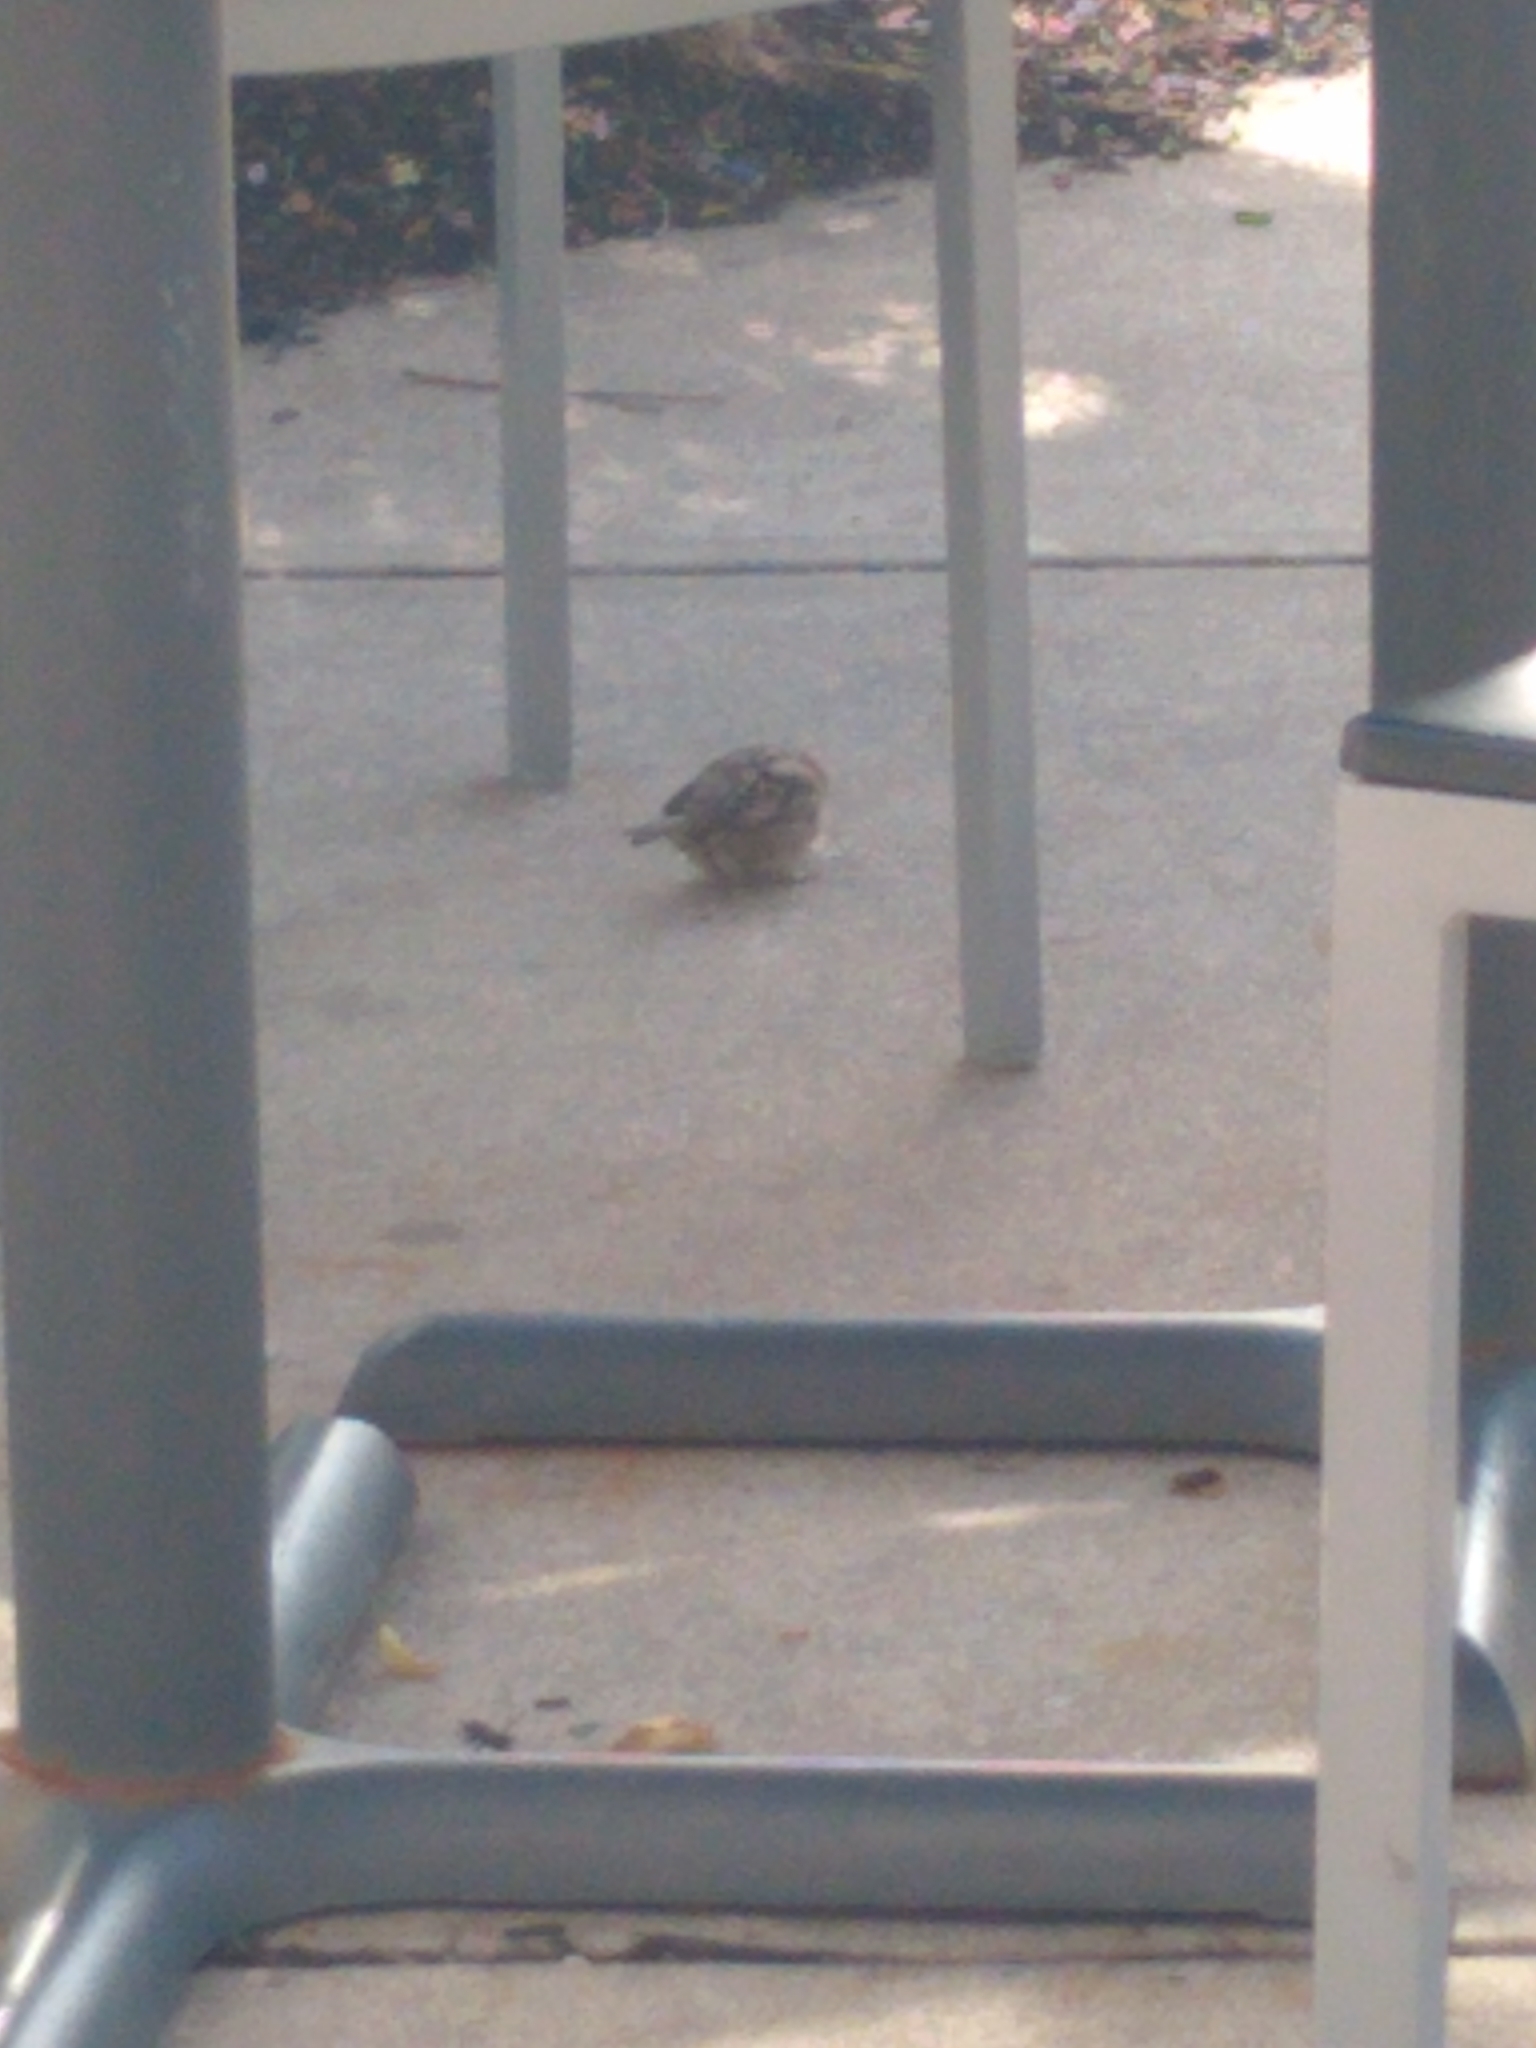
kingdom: Animalia
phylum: Chordata
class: Aves
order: Passeriformes
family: Passeridae
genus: Passer
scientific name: Passer domesticus
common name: House sparrow
